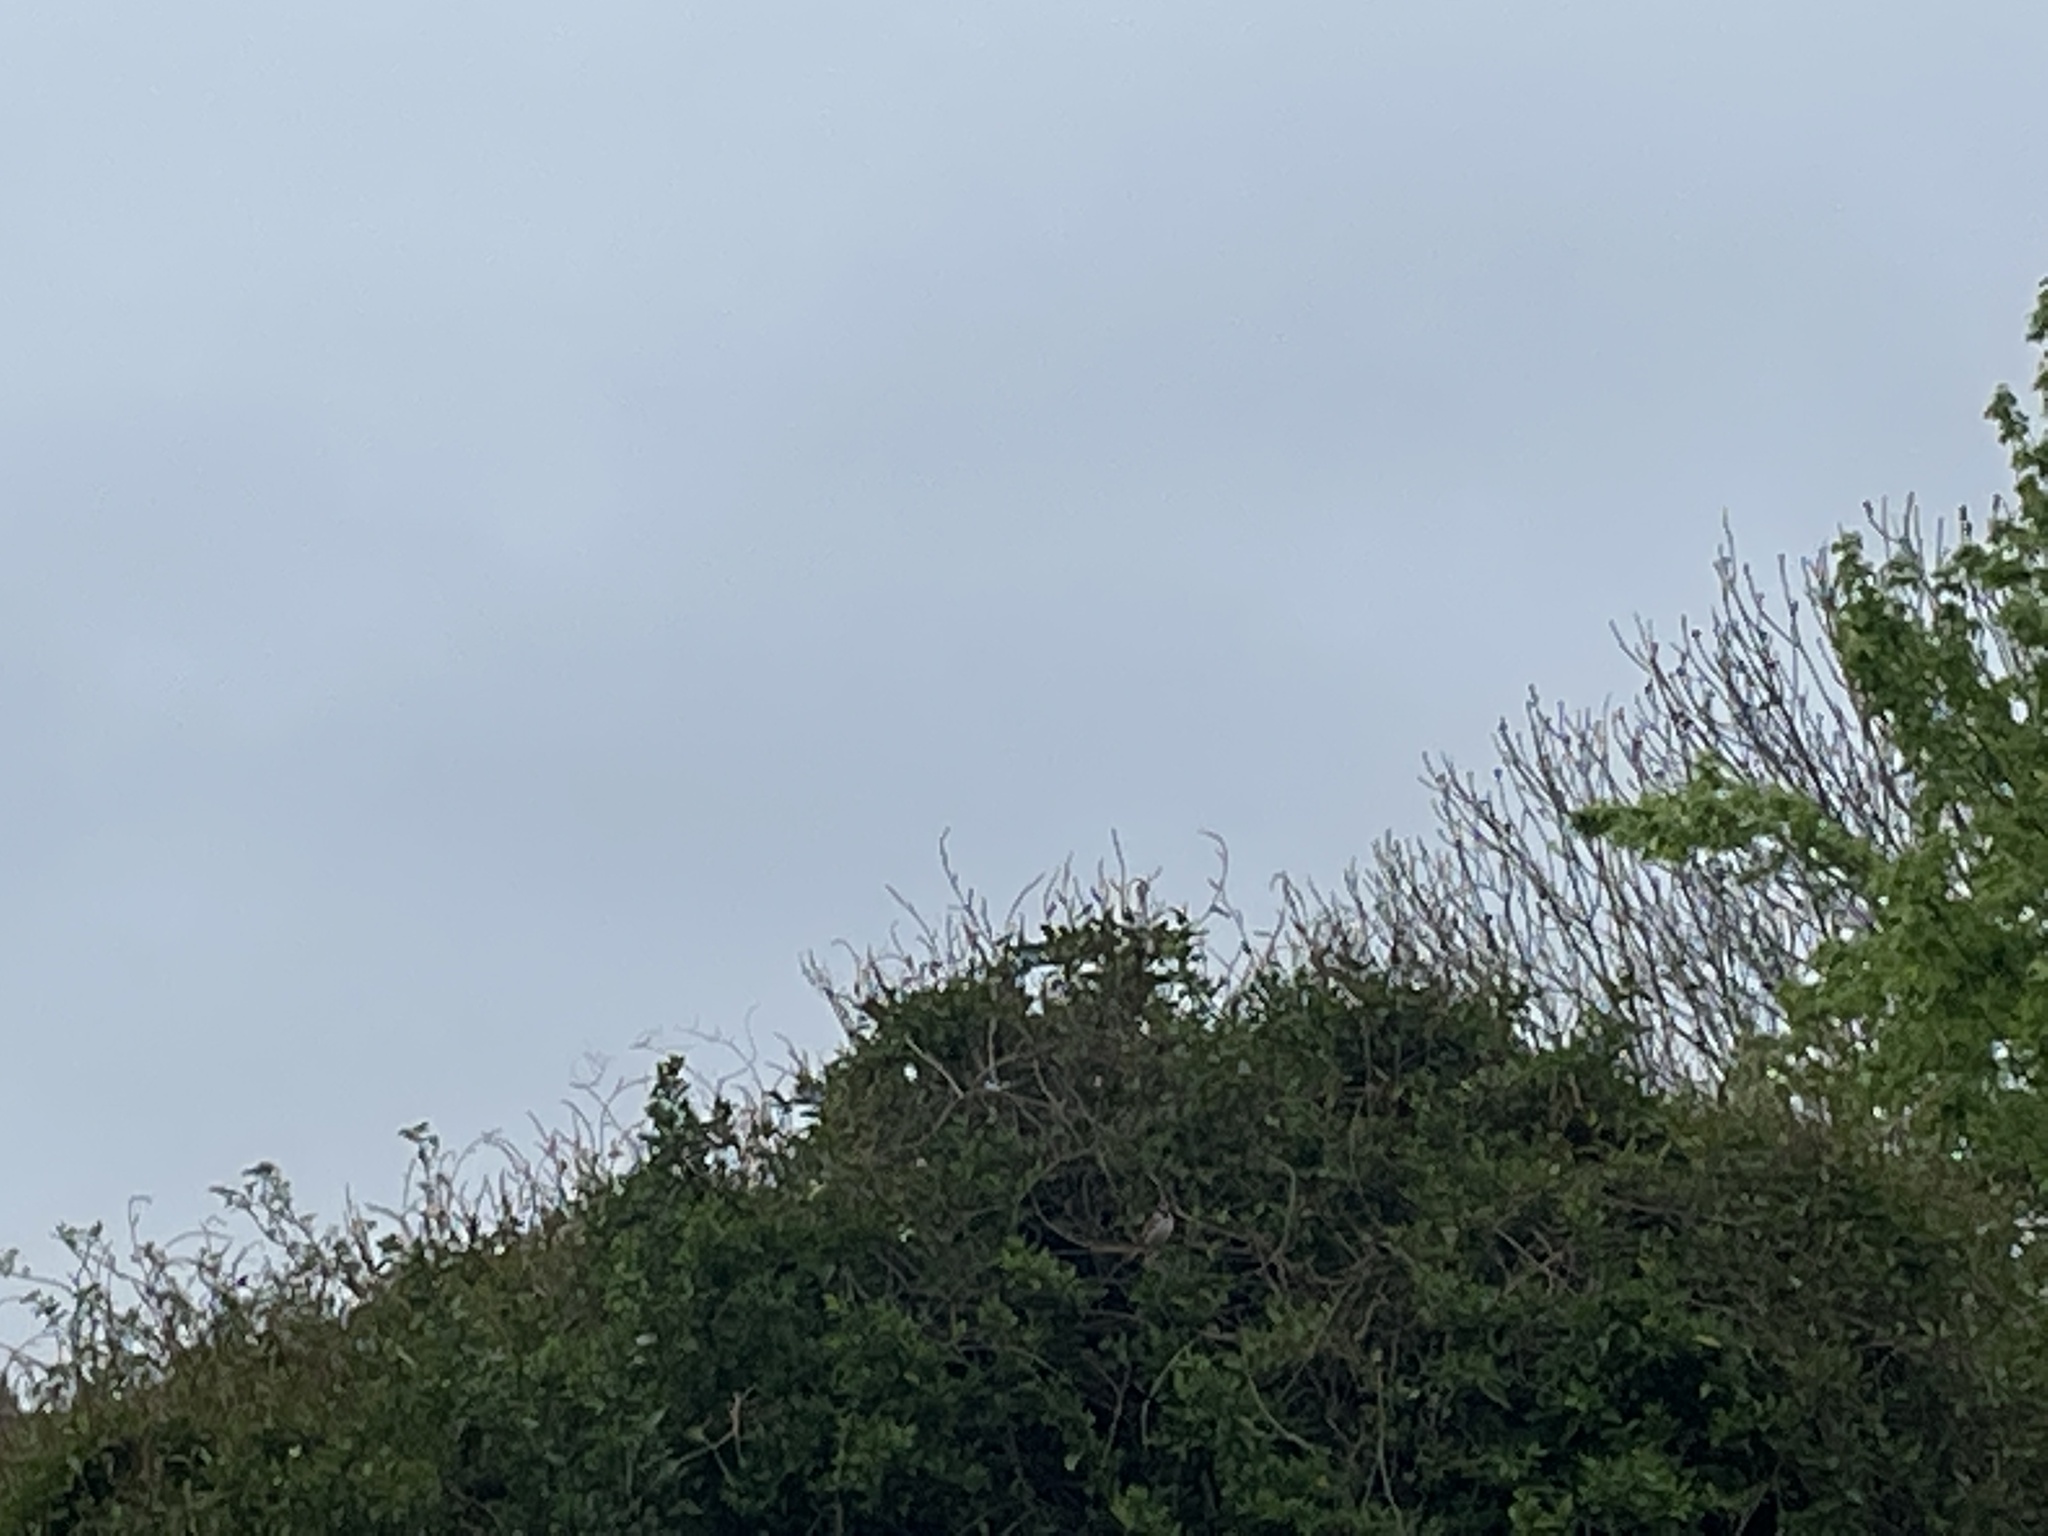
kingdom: Animalia
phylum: Chordata
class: Aves
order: Passeriformes
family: Passeridae
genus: Passer
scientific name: Passer domesticus
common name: House sparrow
